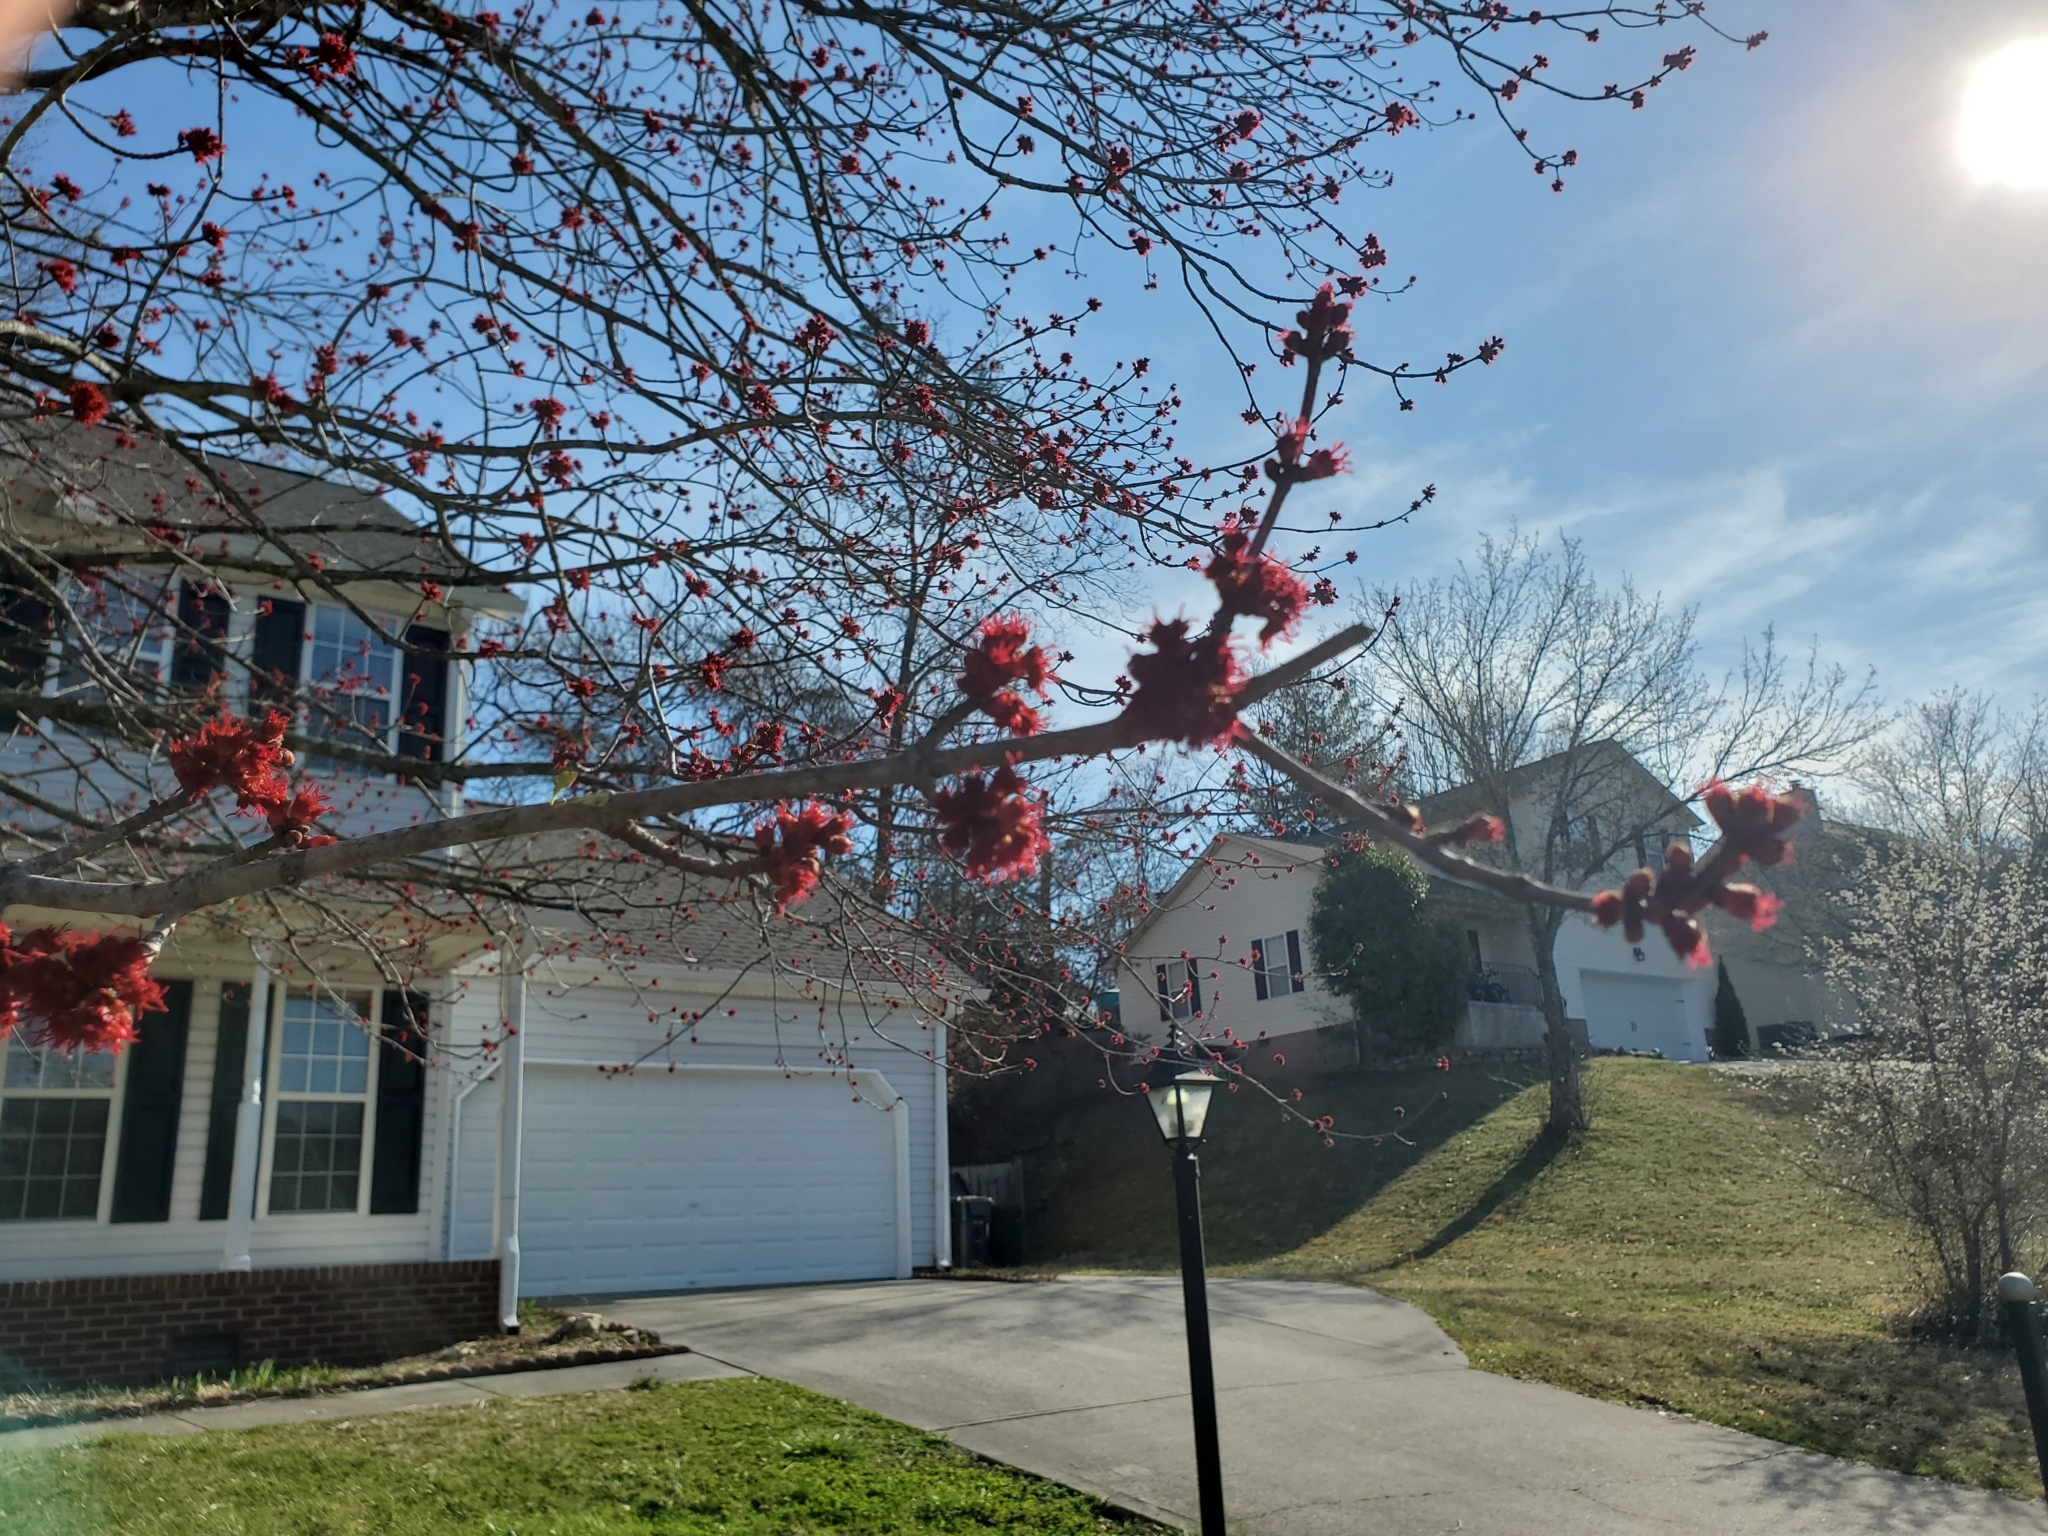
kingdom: Plantae
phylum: Tracheophyta
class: Magnoliopsida
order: Sapindales
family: Sapindaceae
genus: Acer
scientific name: Acer rubrum
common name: Red maple
